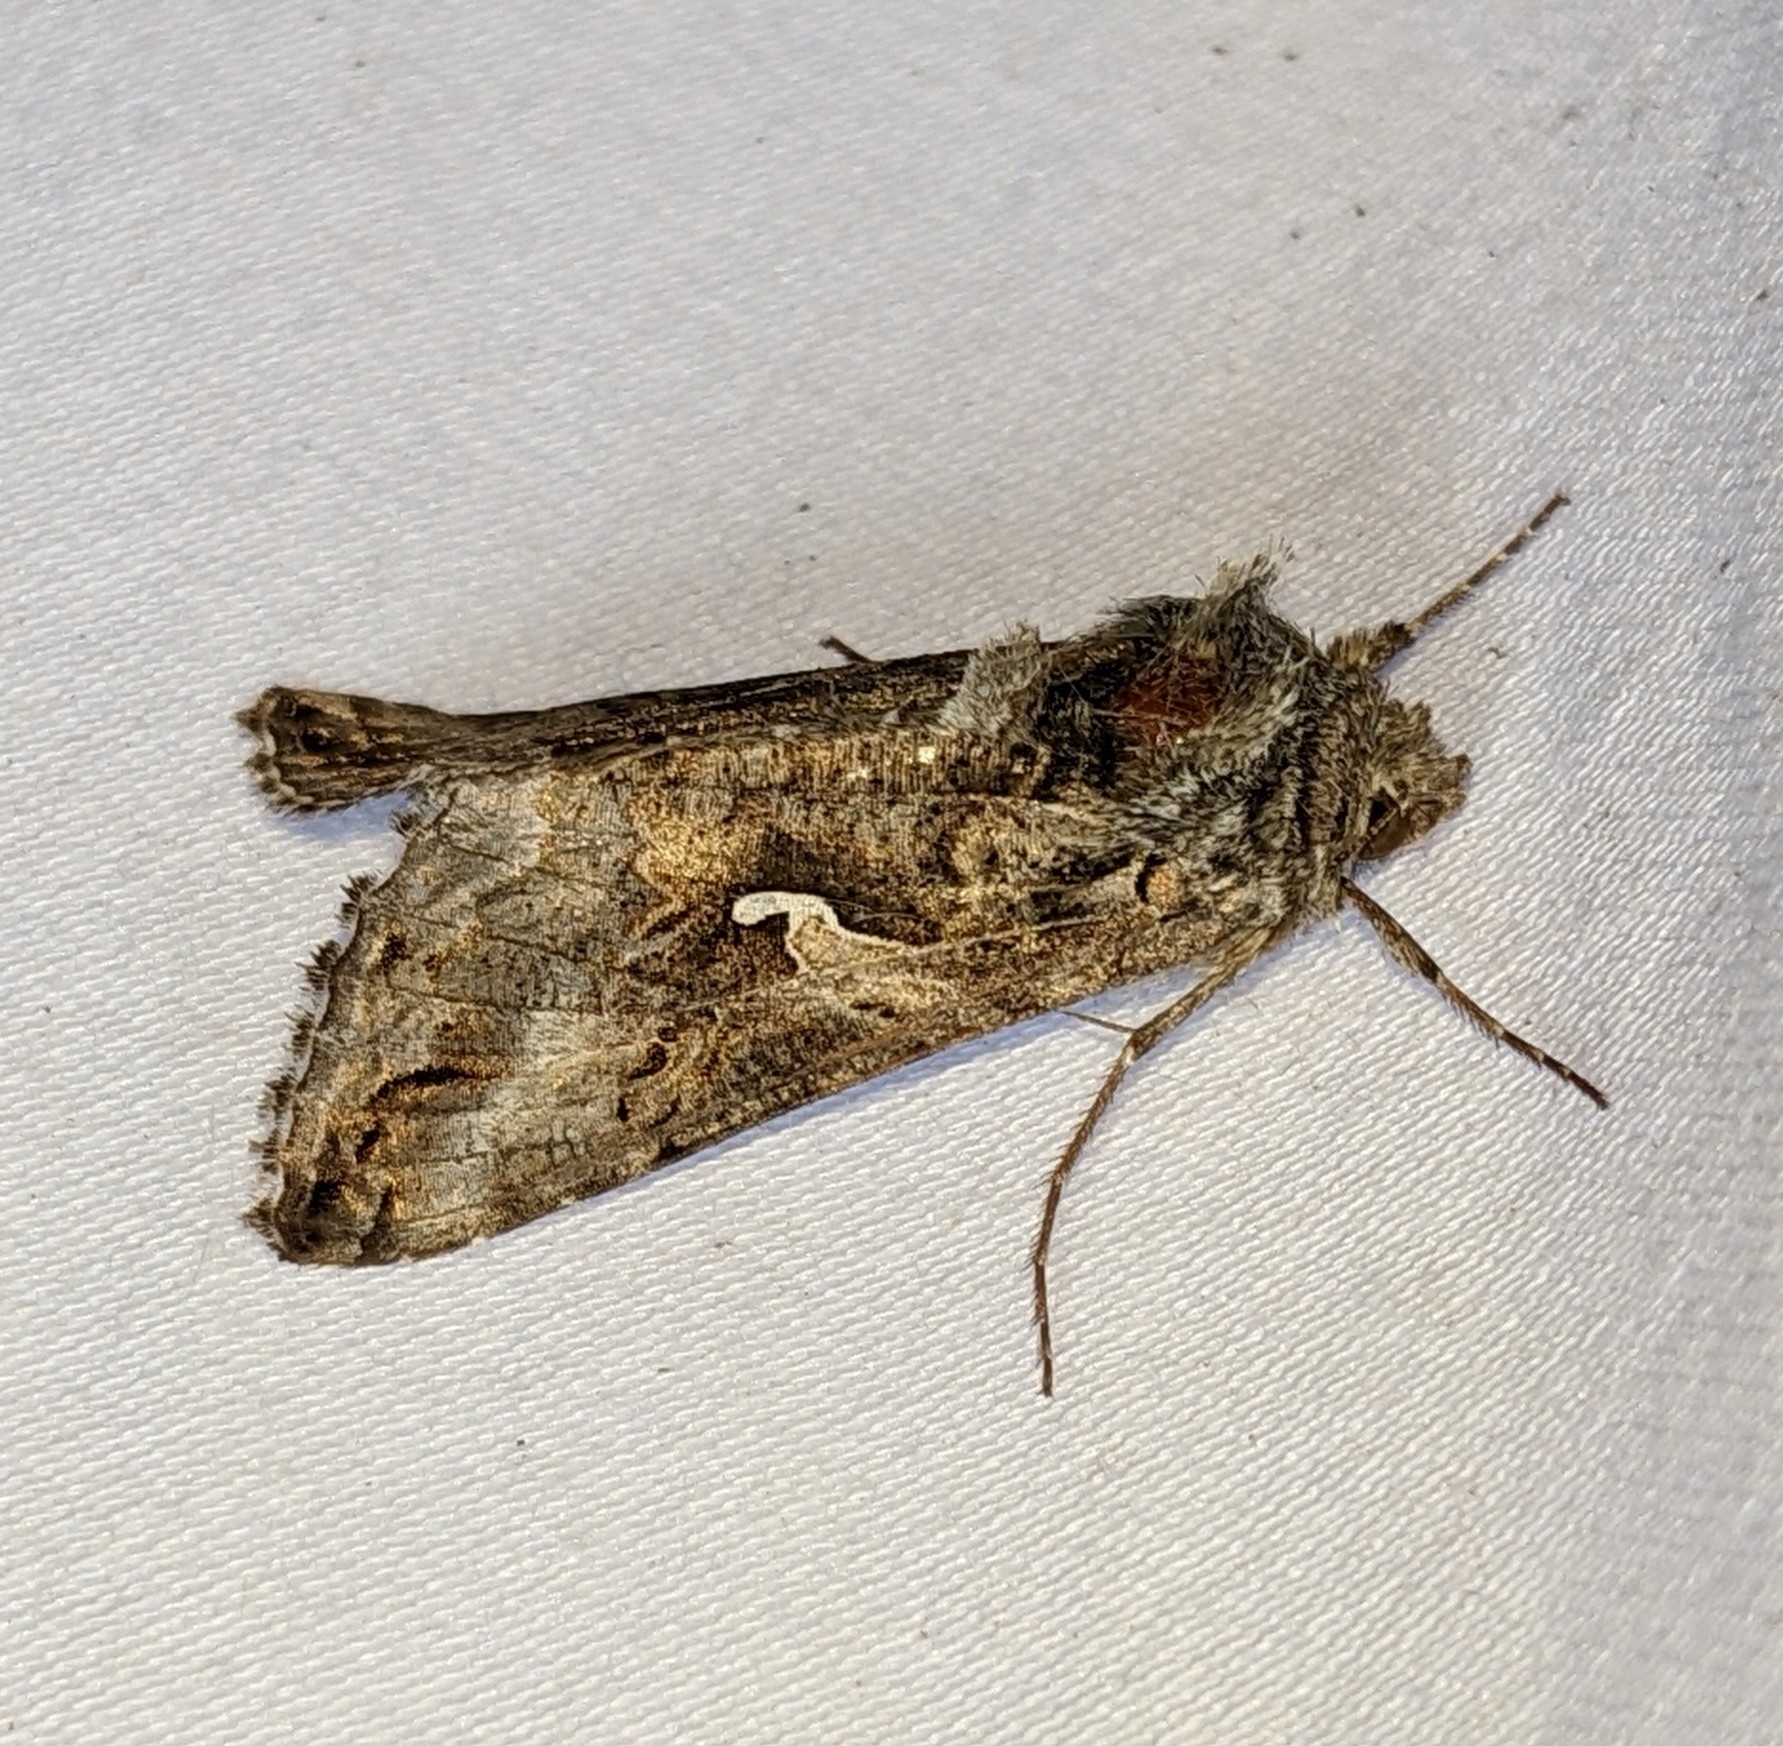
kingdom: Animalia
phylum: Arthropoda
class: Insecta
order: Lepidoptera
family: Noctuidae
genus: Autographa
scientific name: Autographa californica
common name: Alfalfa looper
